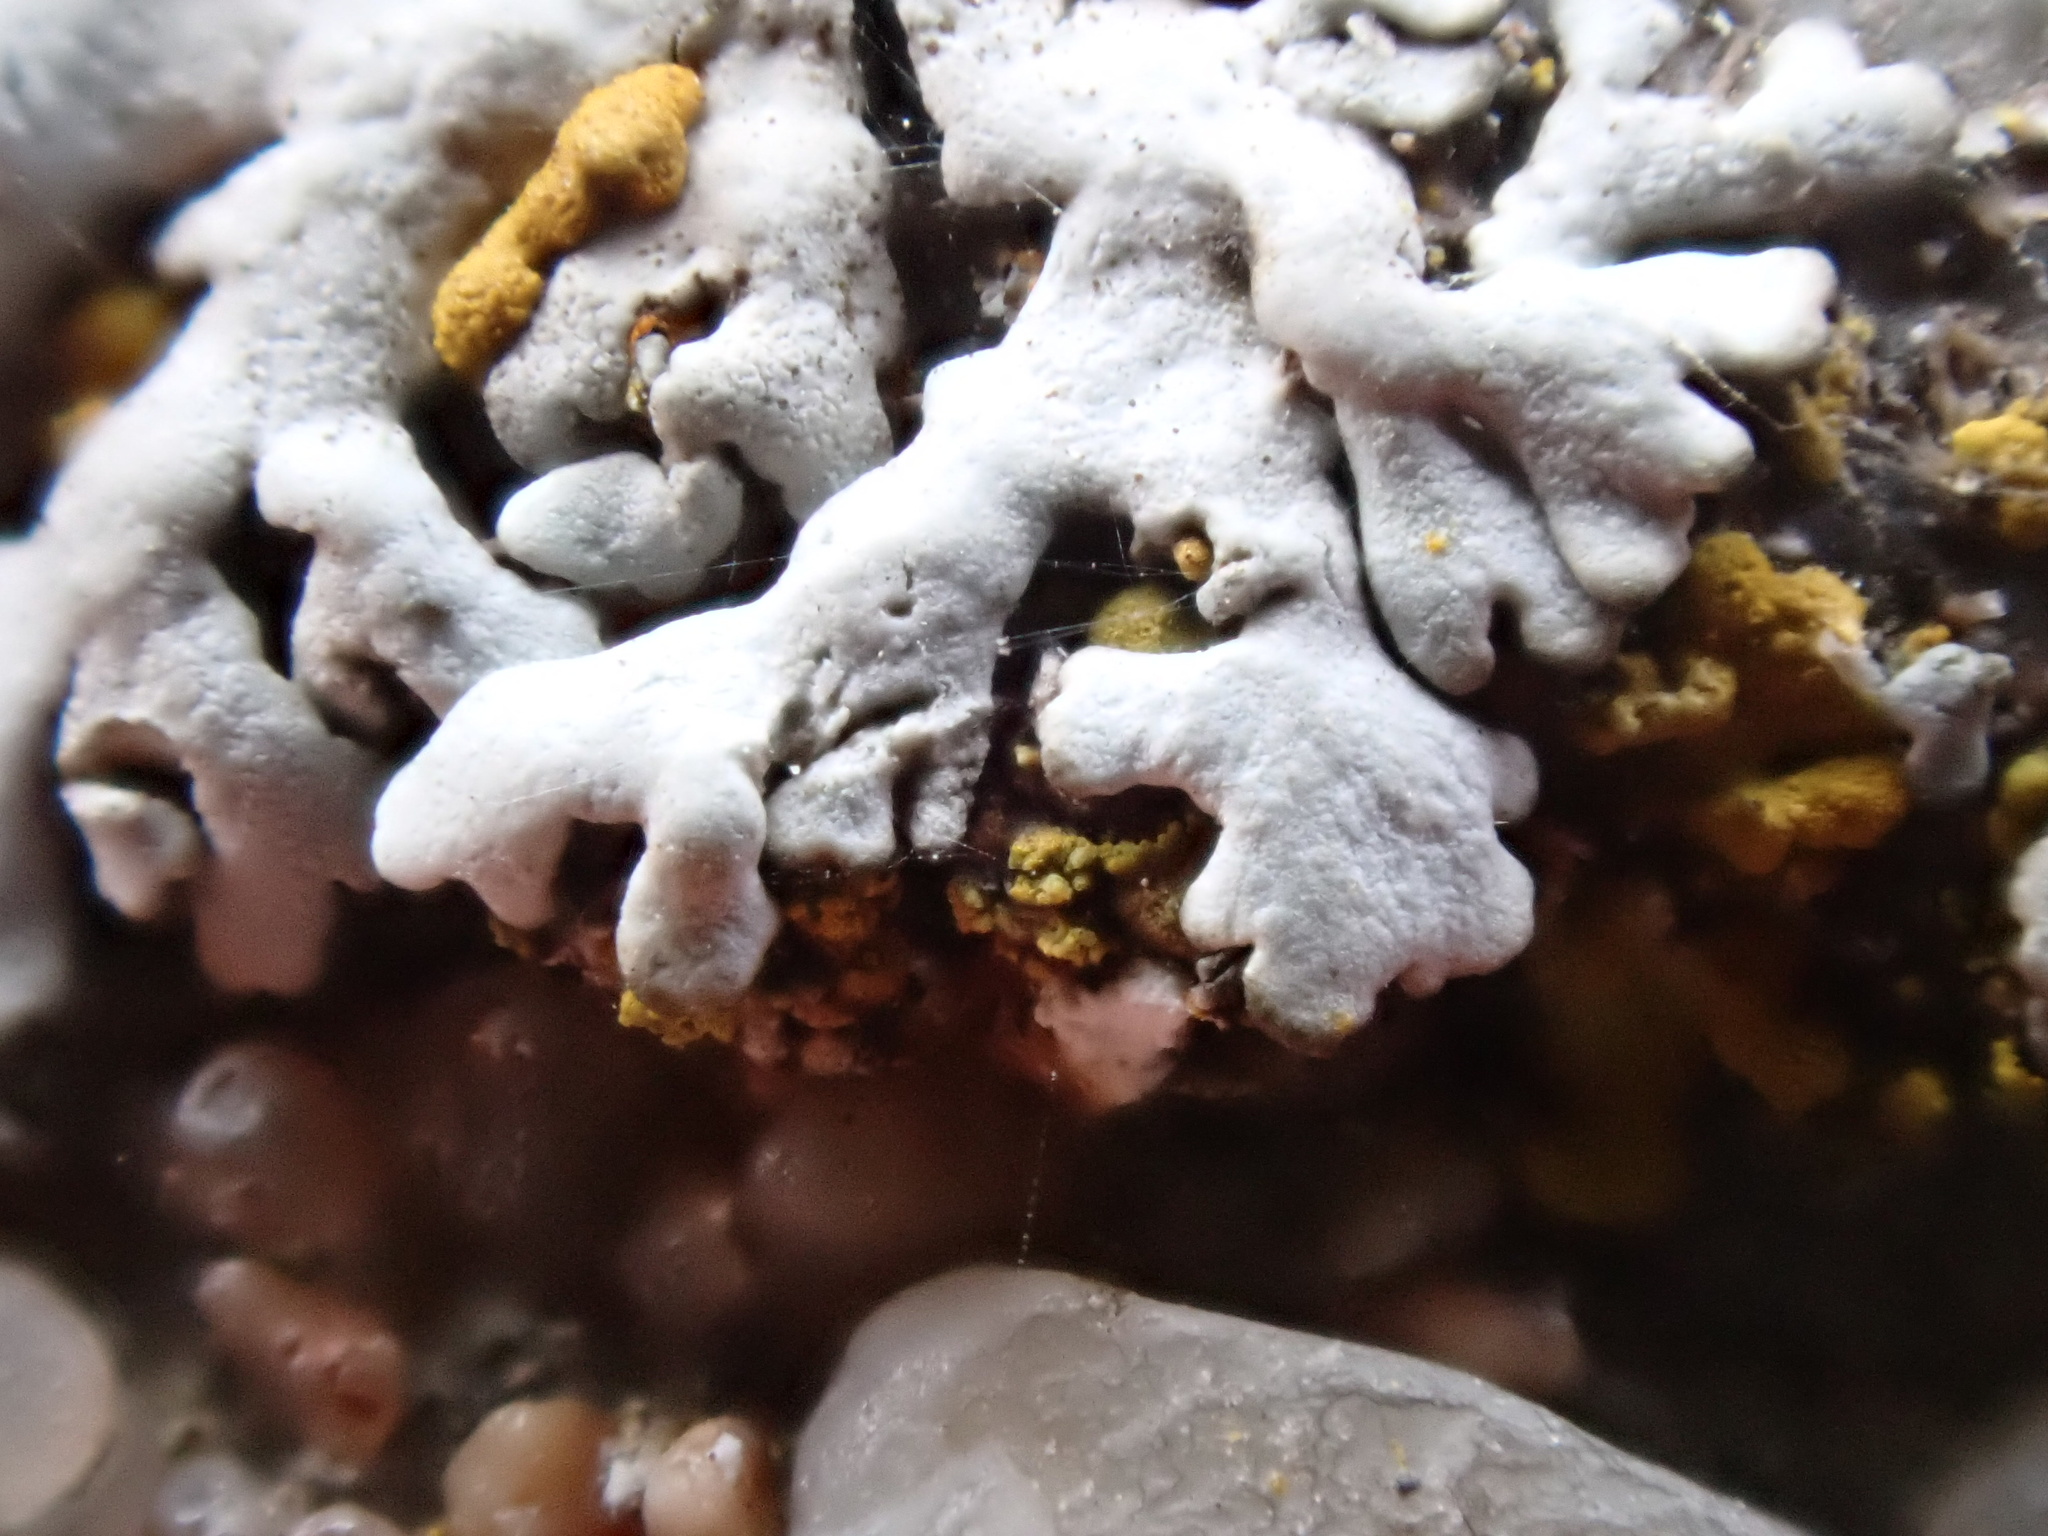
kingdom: Fungi
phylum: Ascomycota
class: Lecanoromycetes
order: Caliciales
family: Physciaceae
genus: Physcia
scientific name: Physcia caesia
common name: Blue-gray rosette lichen
